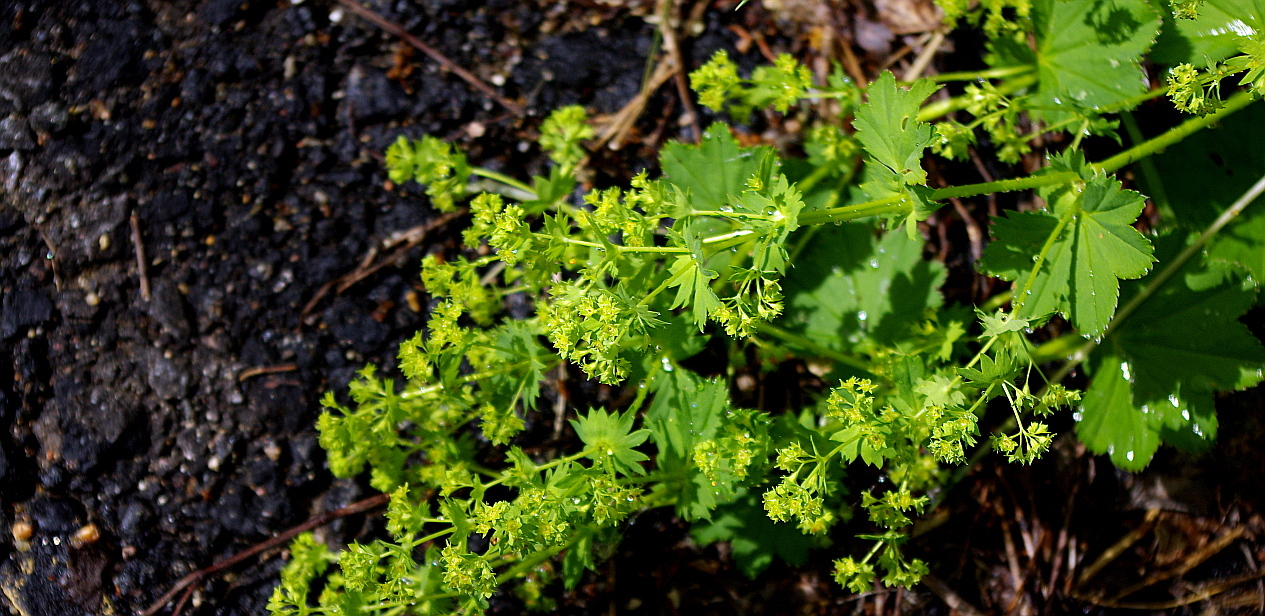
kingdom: Plantae
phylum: Tracheophyta
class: Magnoliopsida
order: Rosales
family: Rosaceae
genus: Alchemilla
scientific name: Alchemilla tichomirovii
